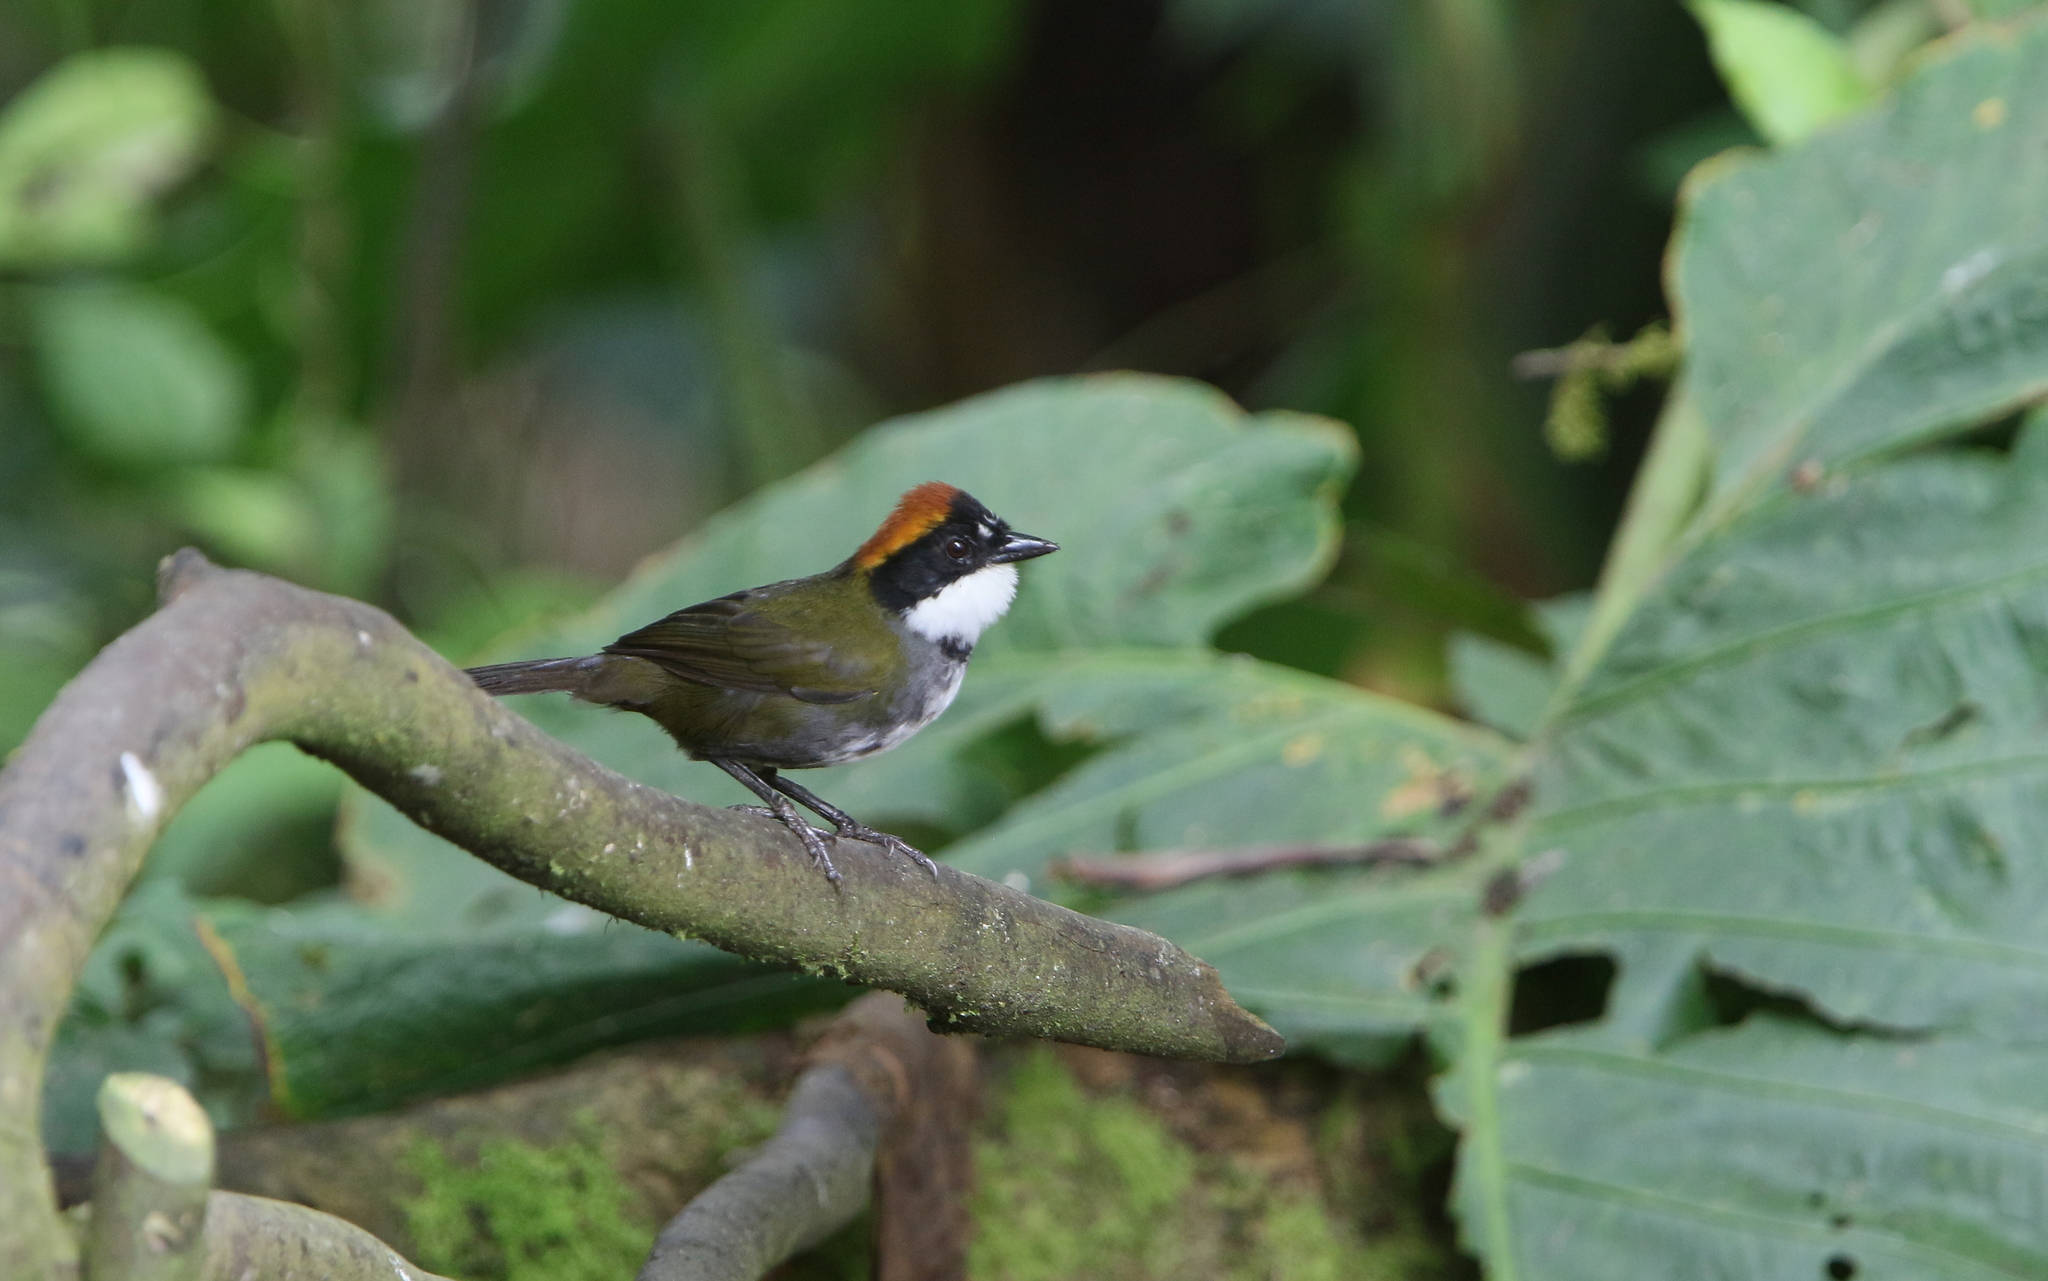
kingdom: Animalia
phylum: Chordata
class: Aves
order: Passeriformes
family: Passerellidae
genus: Arremon
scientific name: Arremon brunneinucha
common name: Chestnut-capped brushfinch
